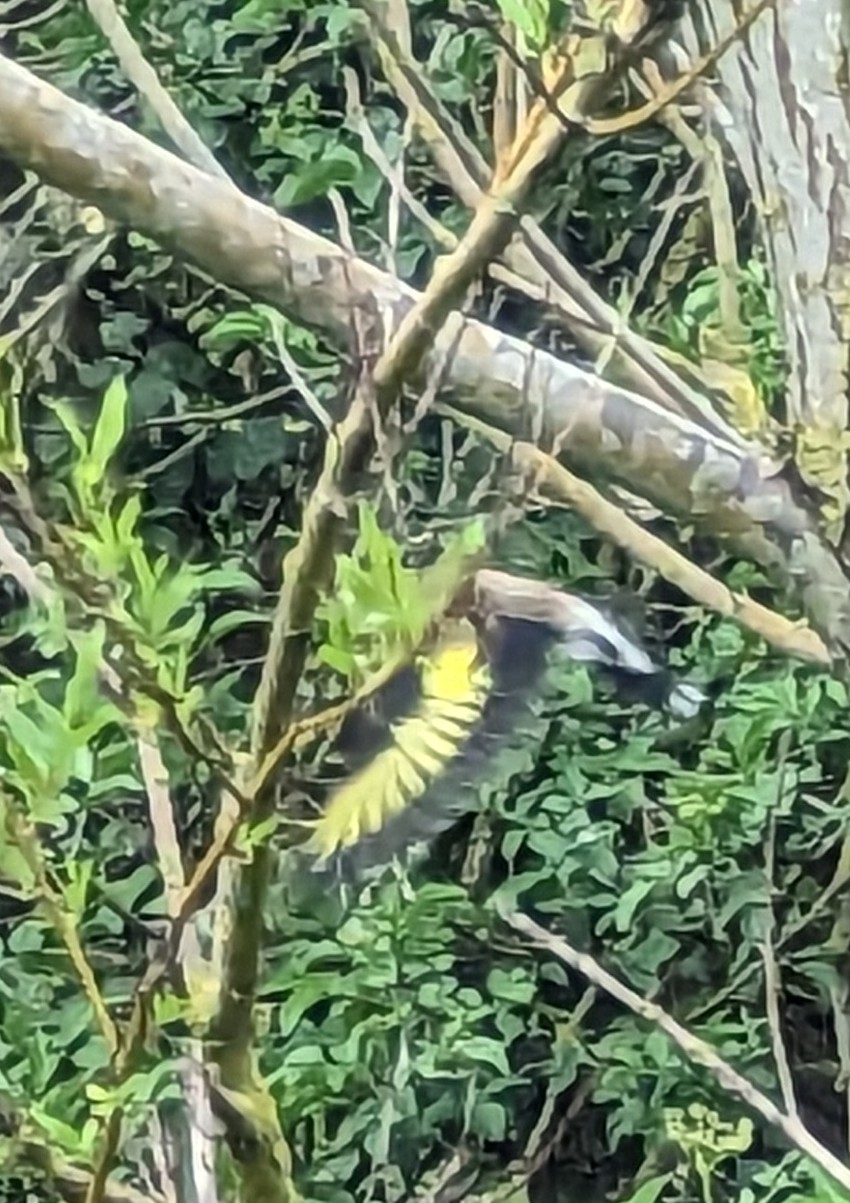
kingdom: Animalia
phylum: Chordata
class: Aves
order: Passeriformes
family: Fringillidae
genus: Carduelis
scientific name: Carduelis carduelis
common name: European goldfinch
